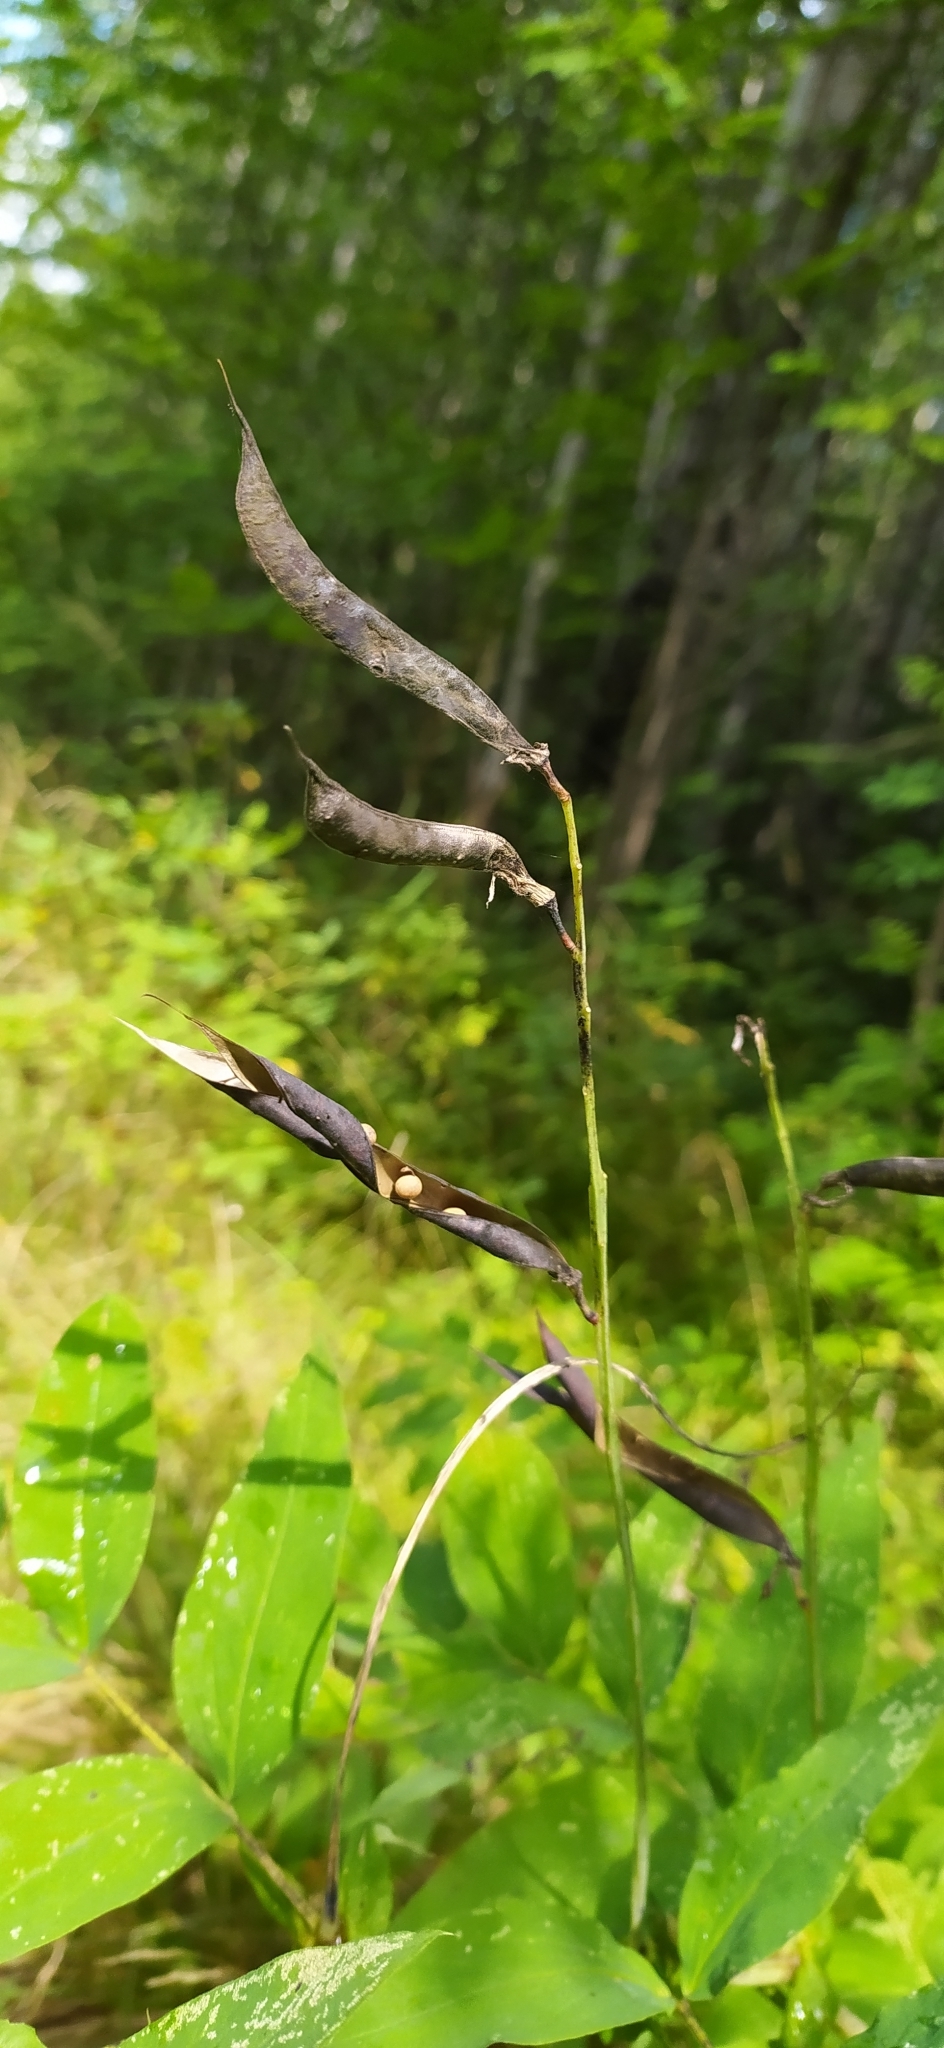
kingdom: Plantae
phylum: Tracheophyta
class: Magnoliopsida
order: Fabales
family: Fabaceae
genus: Lathyrus
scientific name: Lathyrus gmelinii
